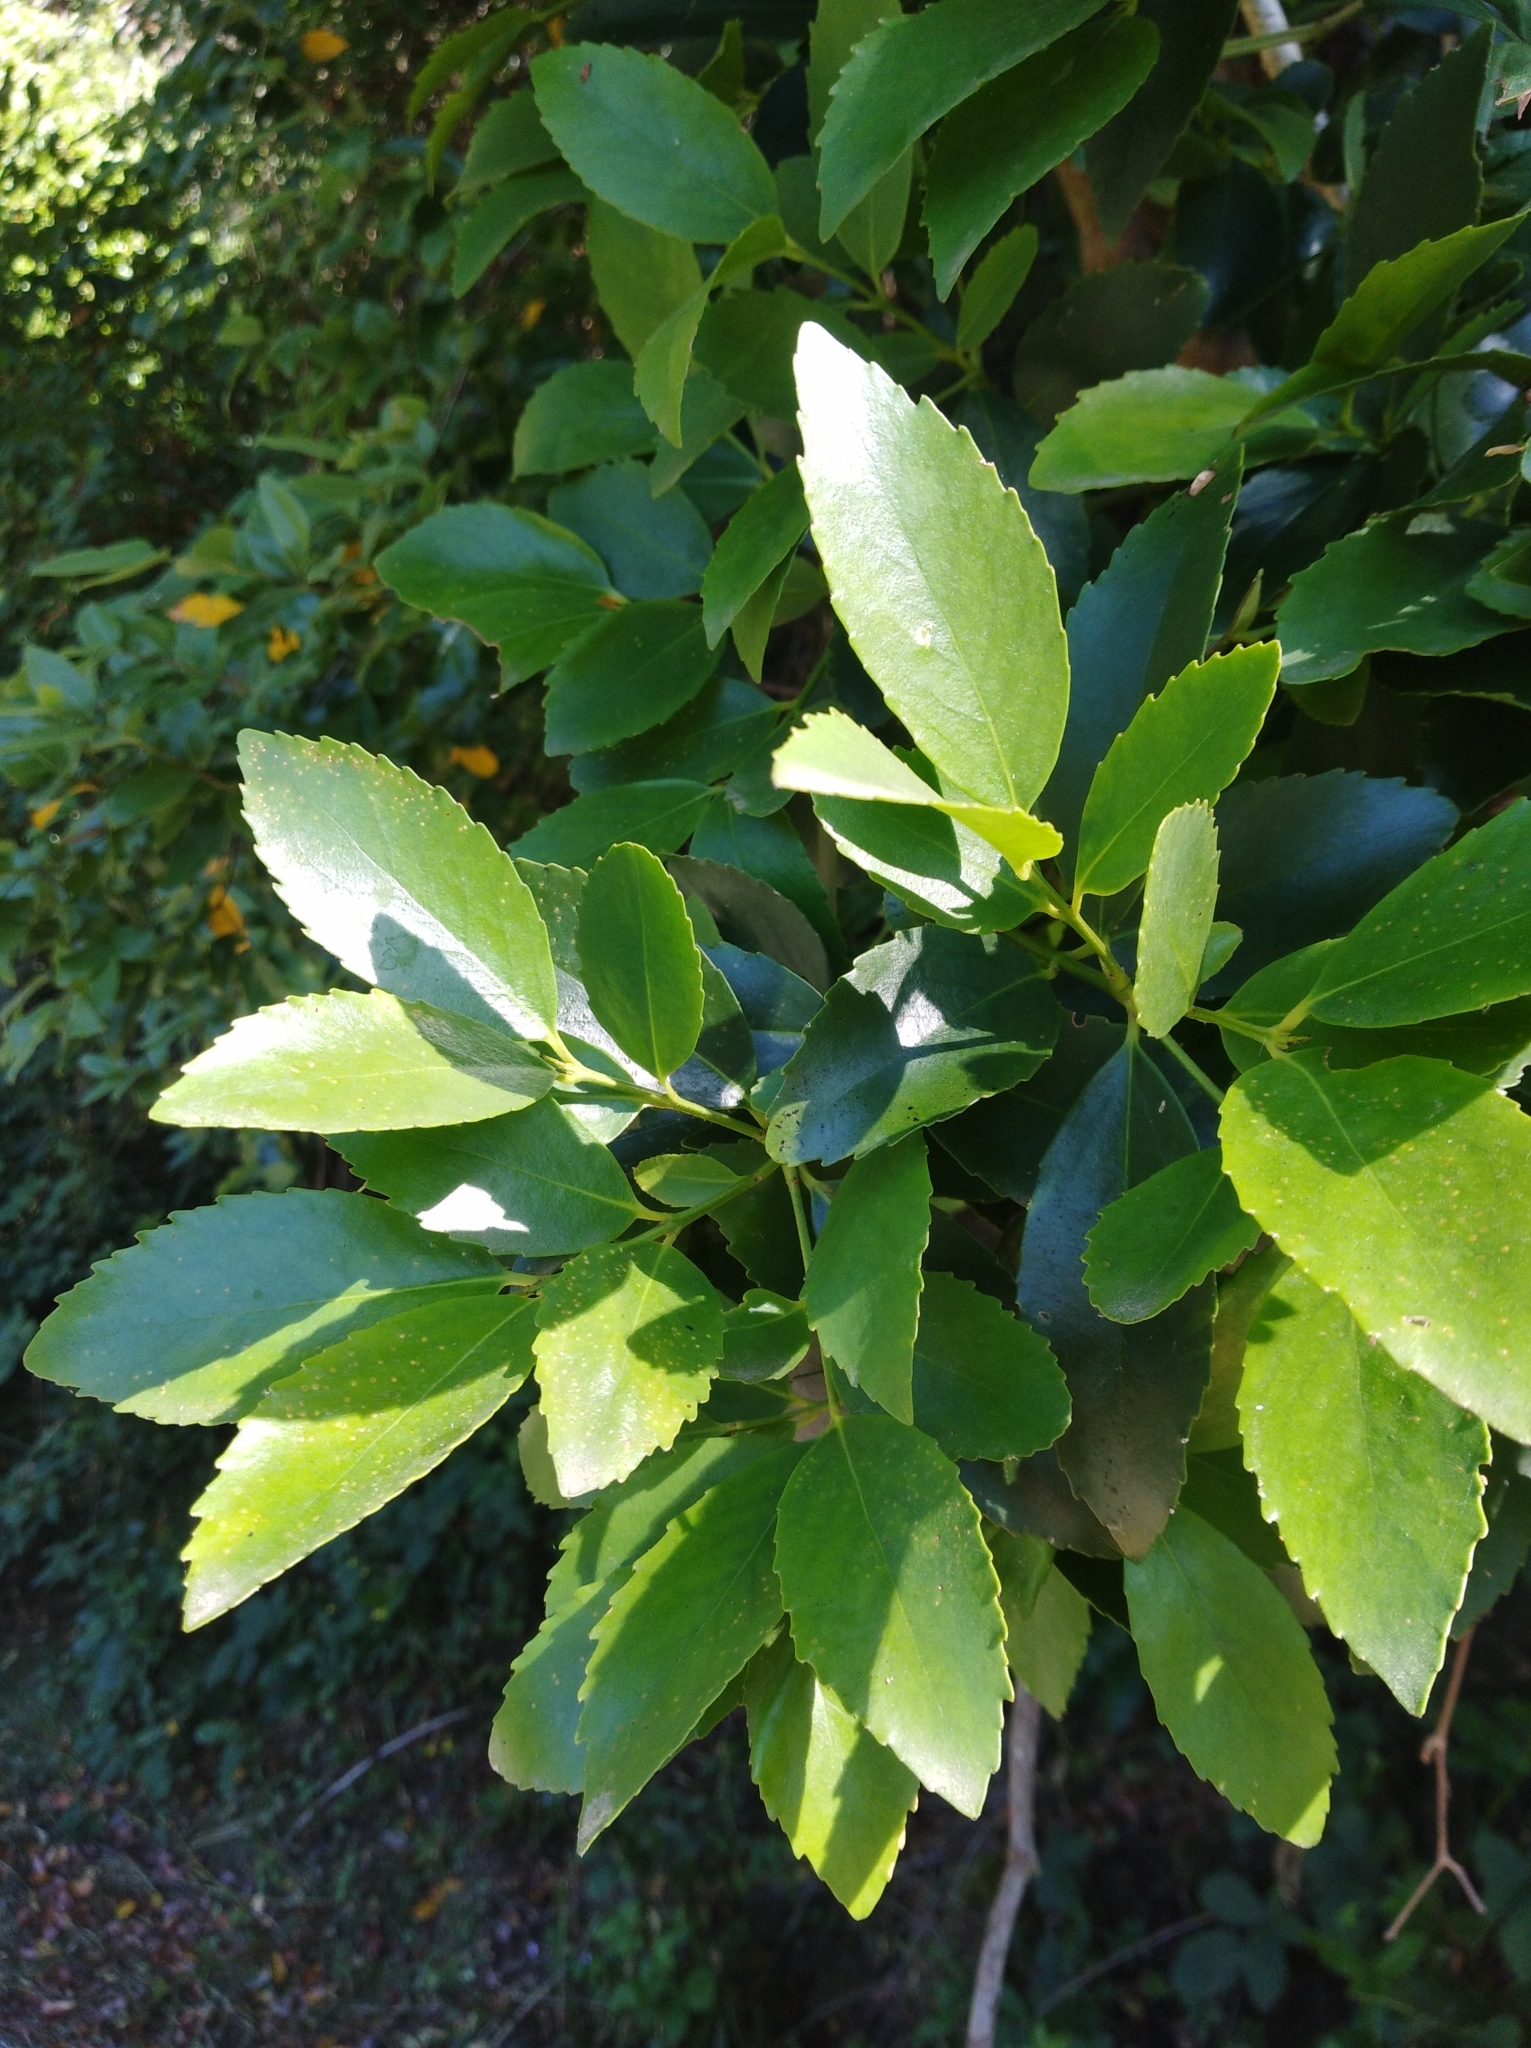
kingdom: Plantae
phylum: Tracheophyta
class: Magnoliopsida
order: Laurales
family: Atherospermataceae
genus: Laurelia
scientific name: Laurelia sempervirens
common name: Chilean laurel
